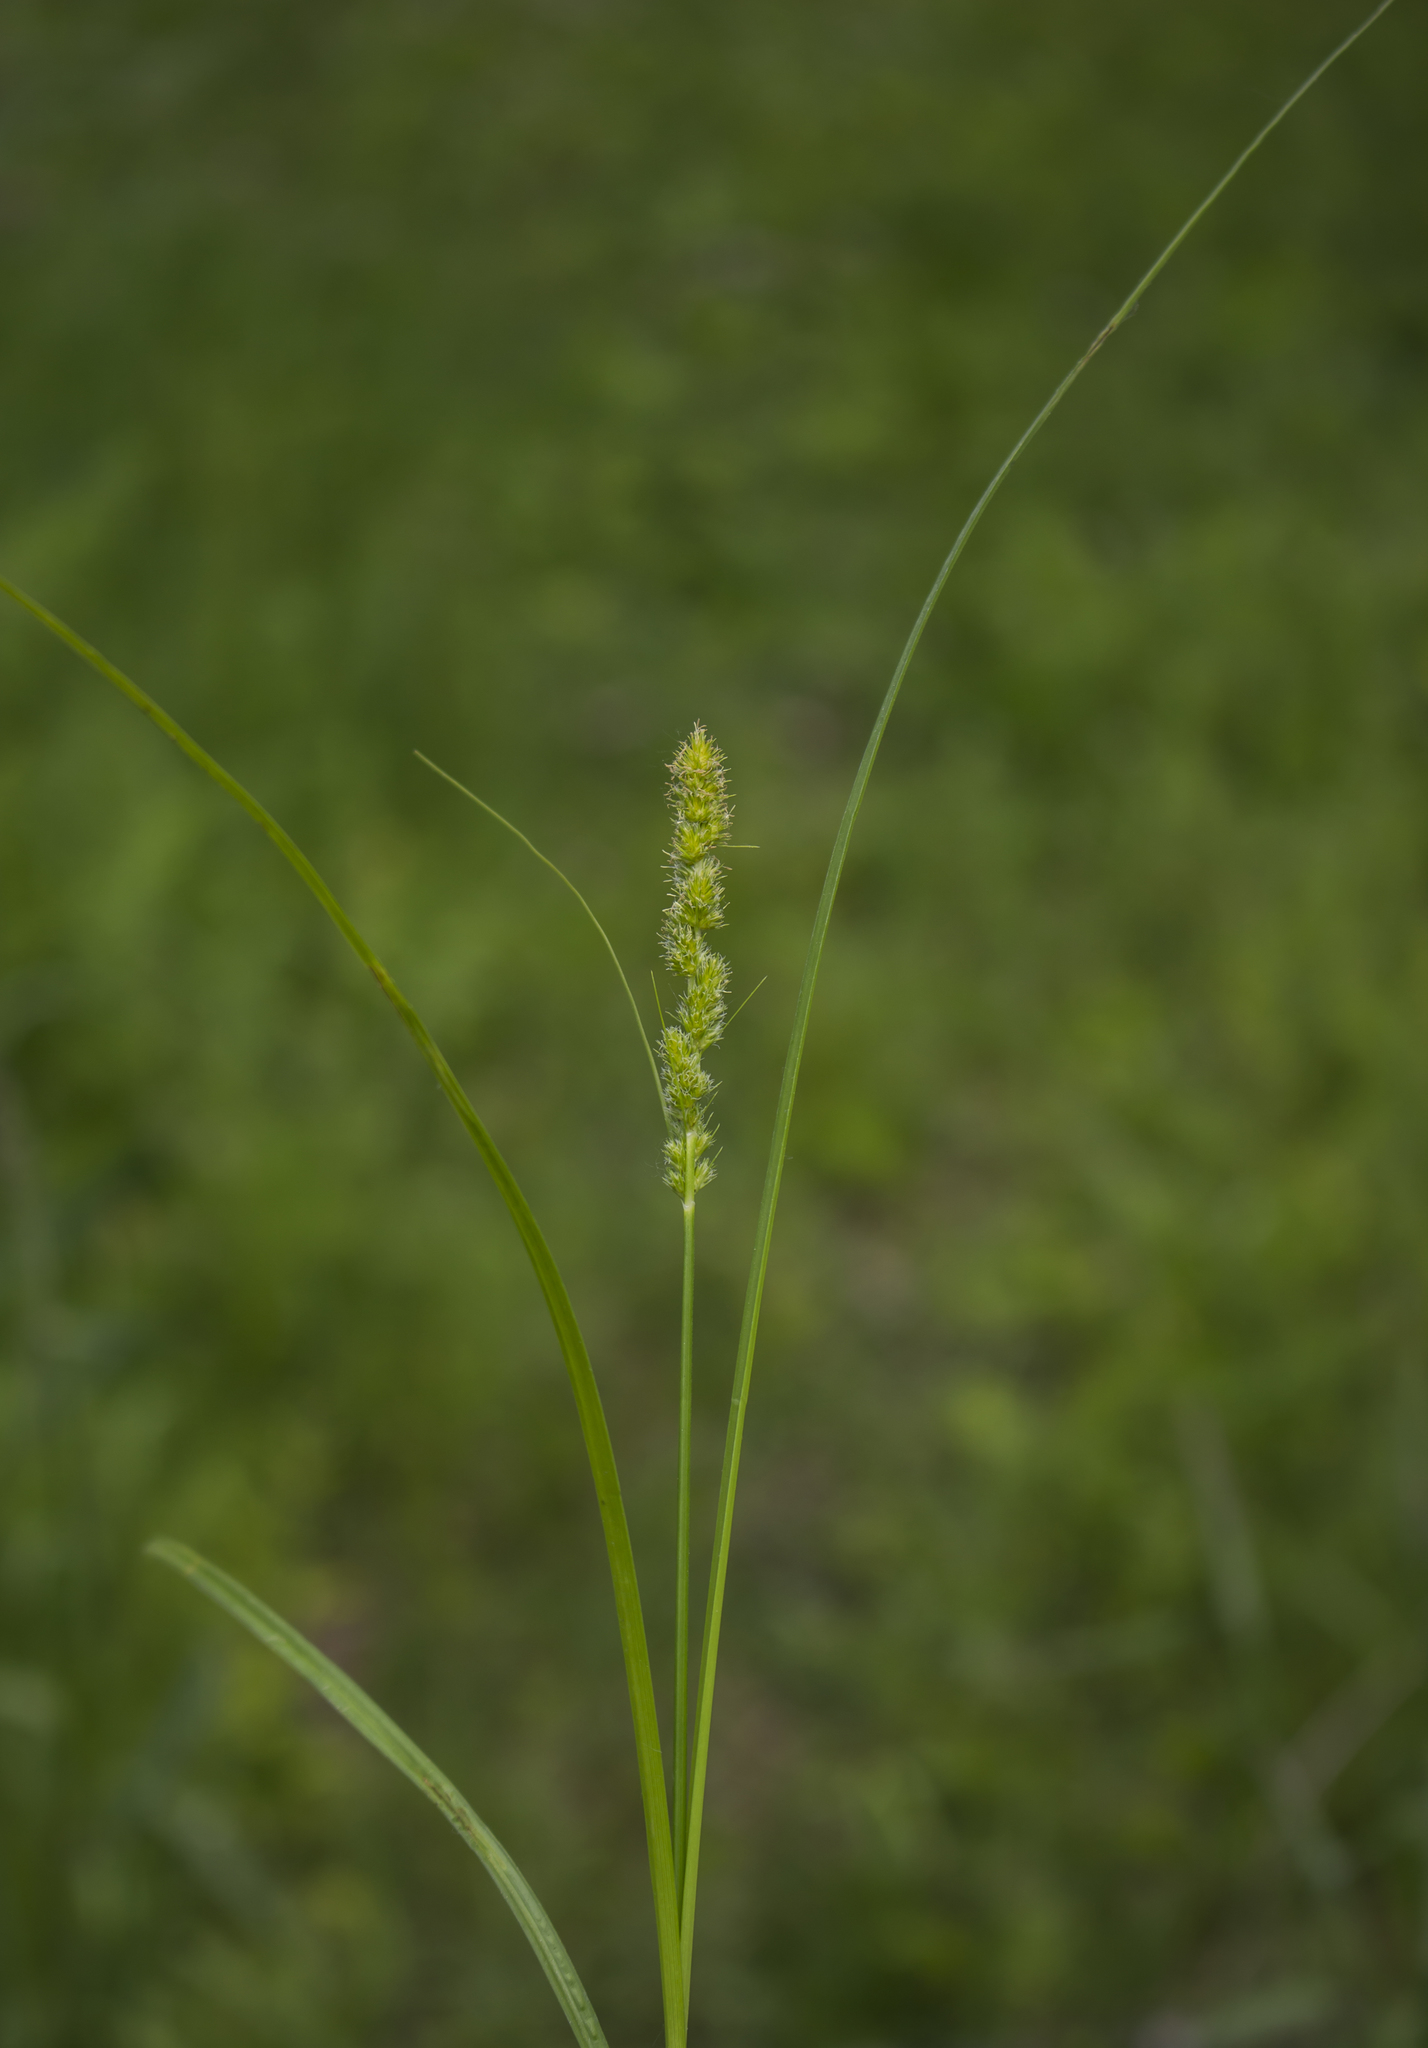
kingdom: Plantae
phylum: Tracheophyta
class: Liliopsida
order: Poales
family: Cyperaceae
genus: Carex
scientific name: Carex vulpinoidea
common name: American fox-sedge
